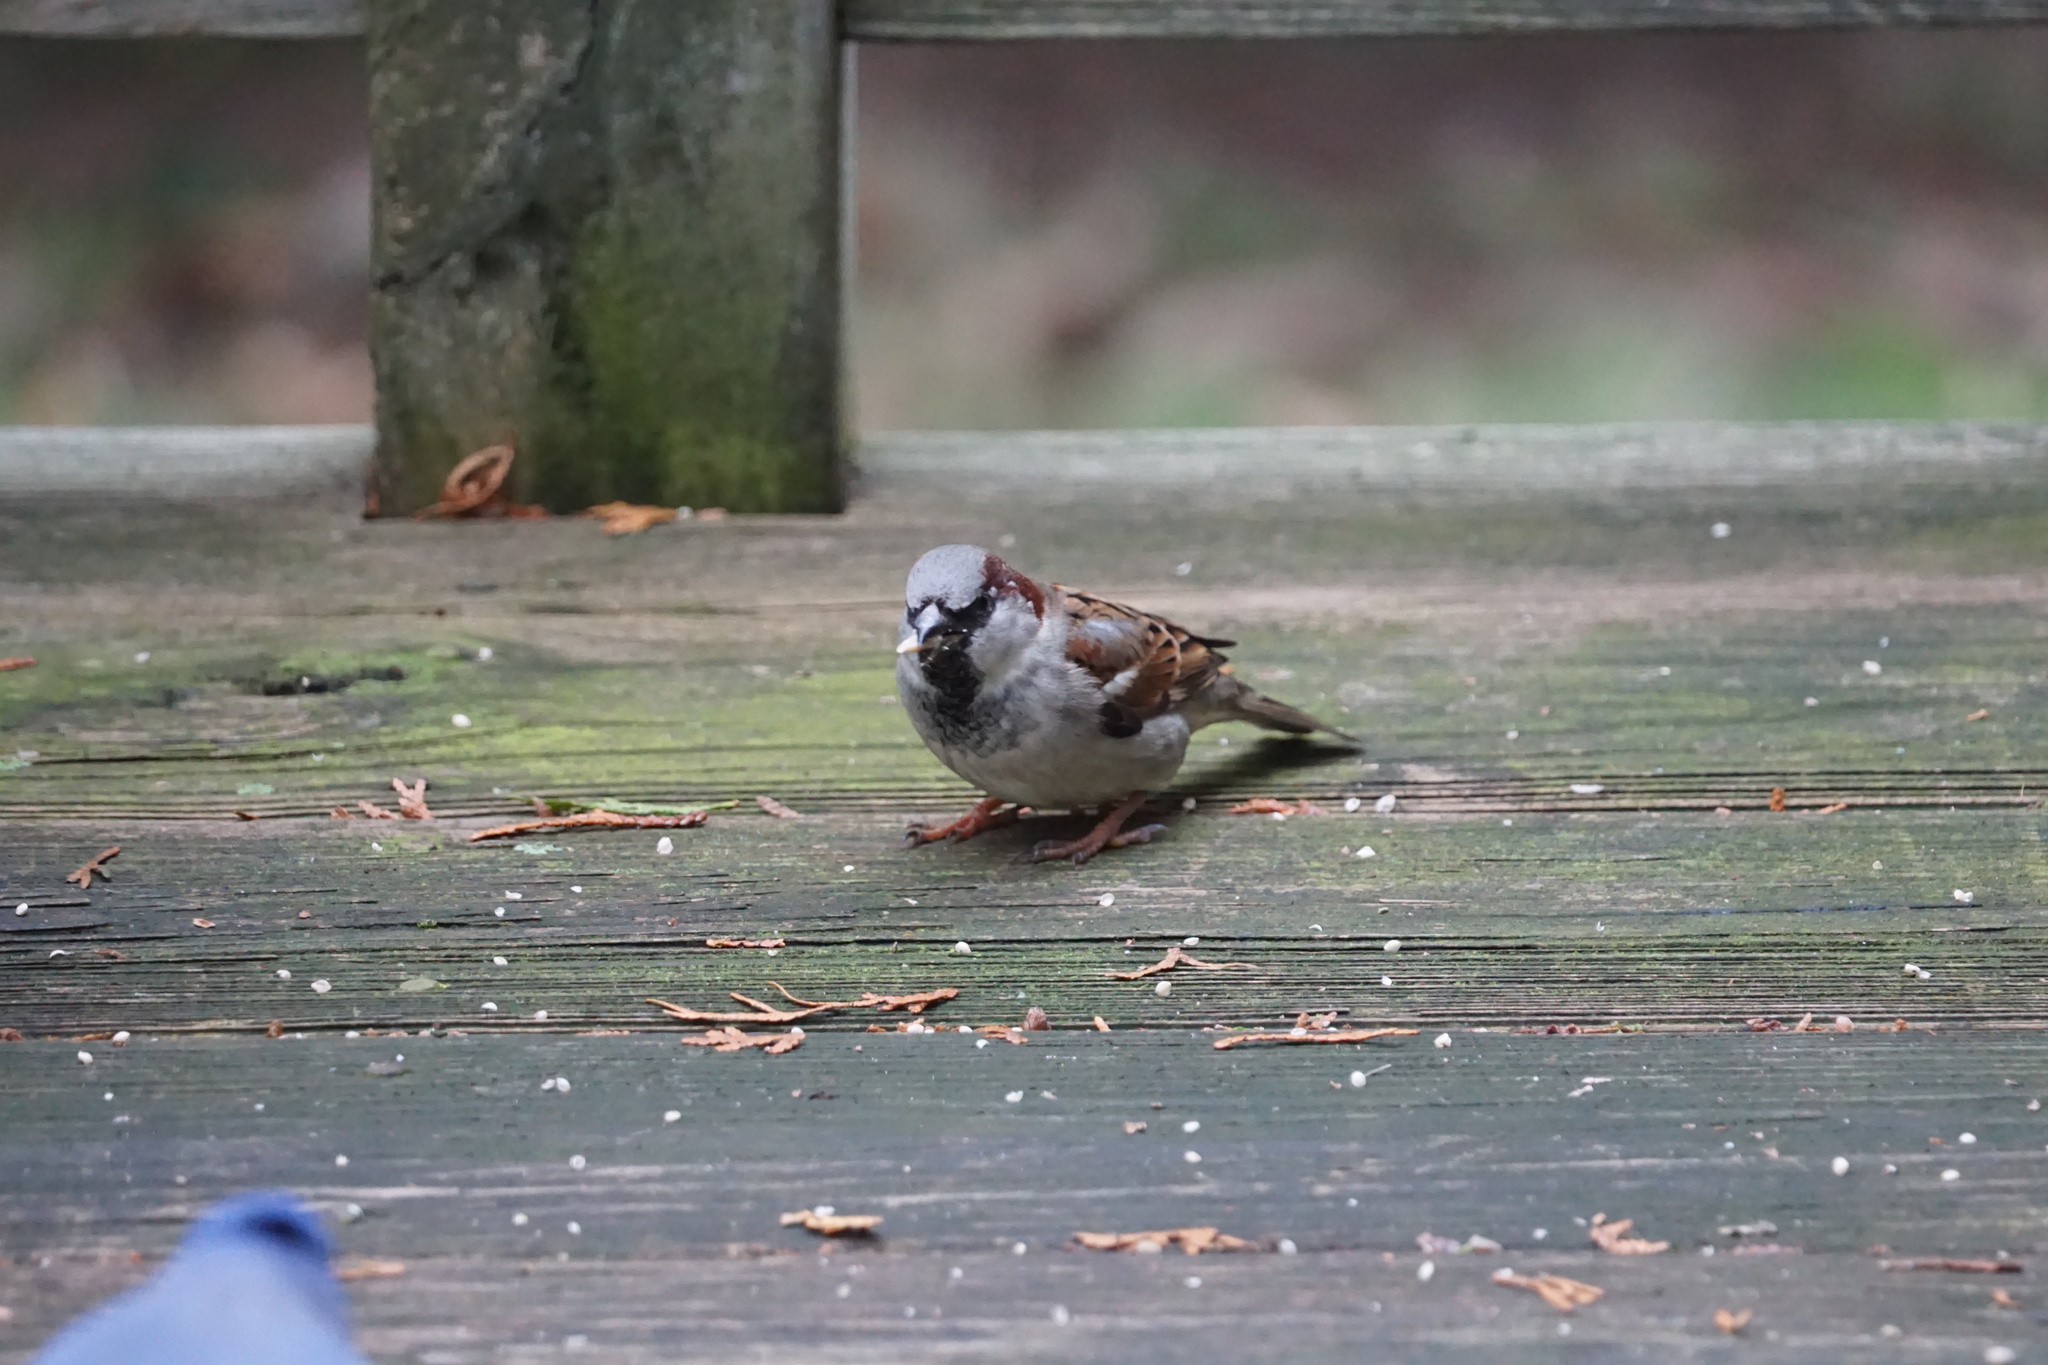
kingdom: Animalia
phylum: Chordata
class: Aves
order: Passeriformes
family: Passeridae
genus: Passer
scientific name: Passer domesticus
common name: House sparrow
